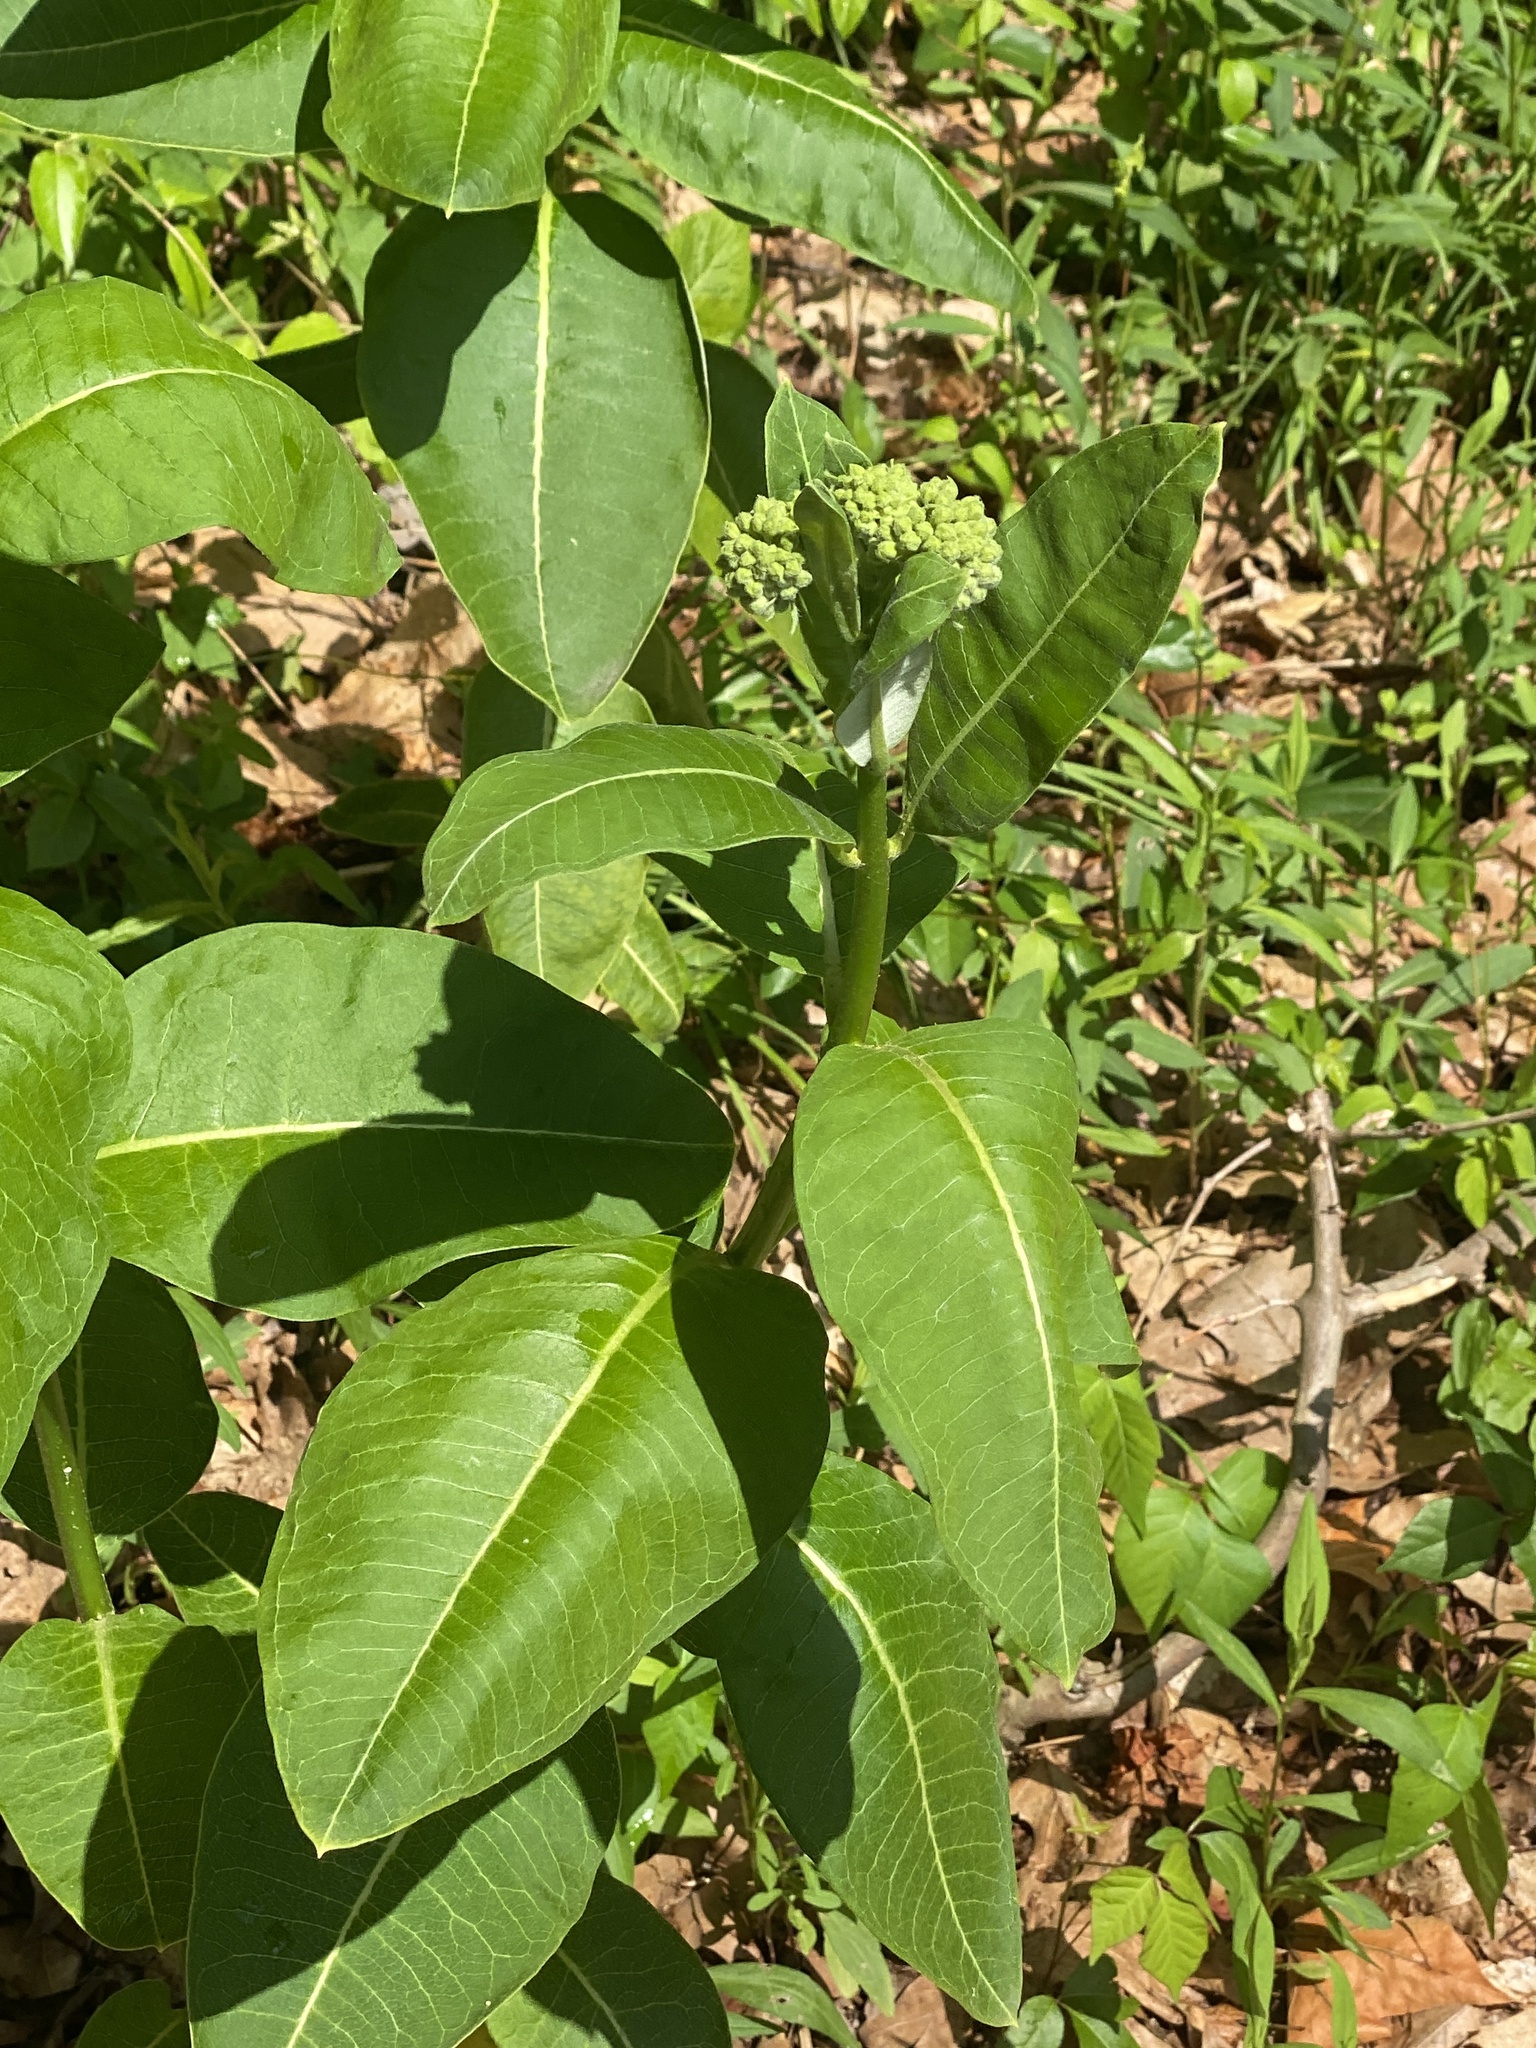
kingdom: Plantae
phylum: Tracheophyta
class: Magnoliopsida
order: Gentianales
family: Apocynaceae
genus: Asclepias
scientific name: Asclepias syriaca
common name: Common milkweed
